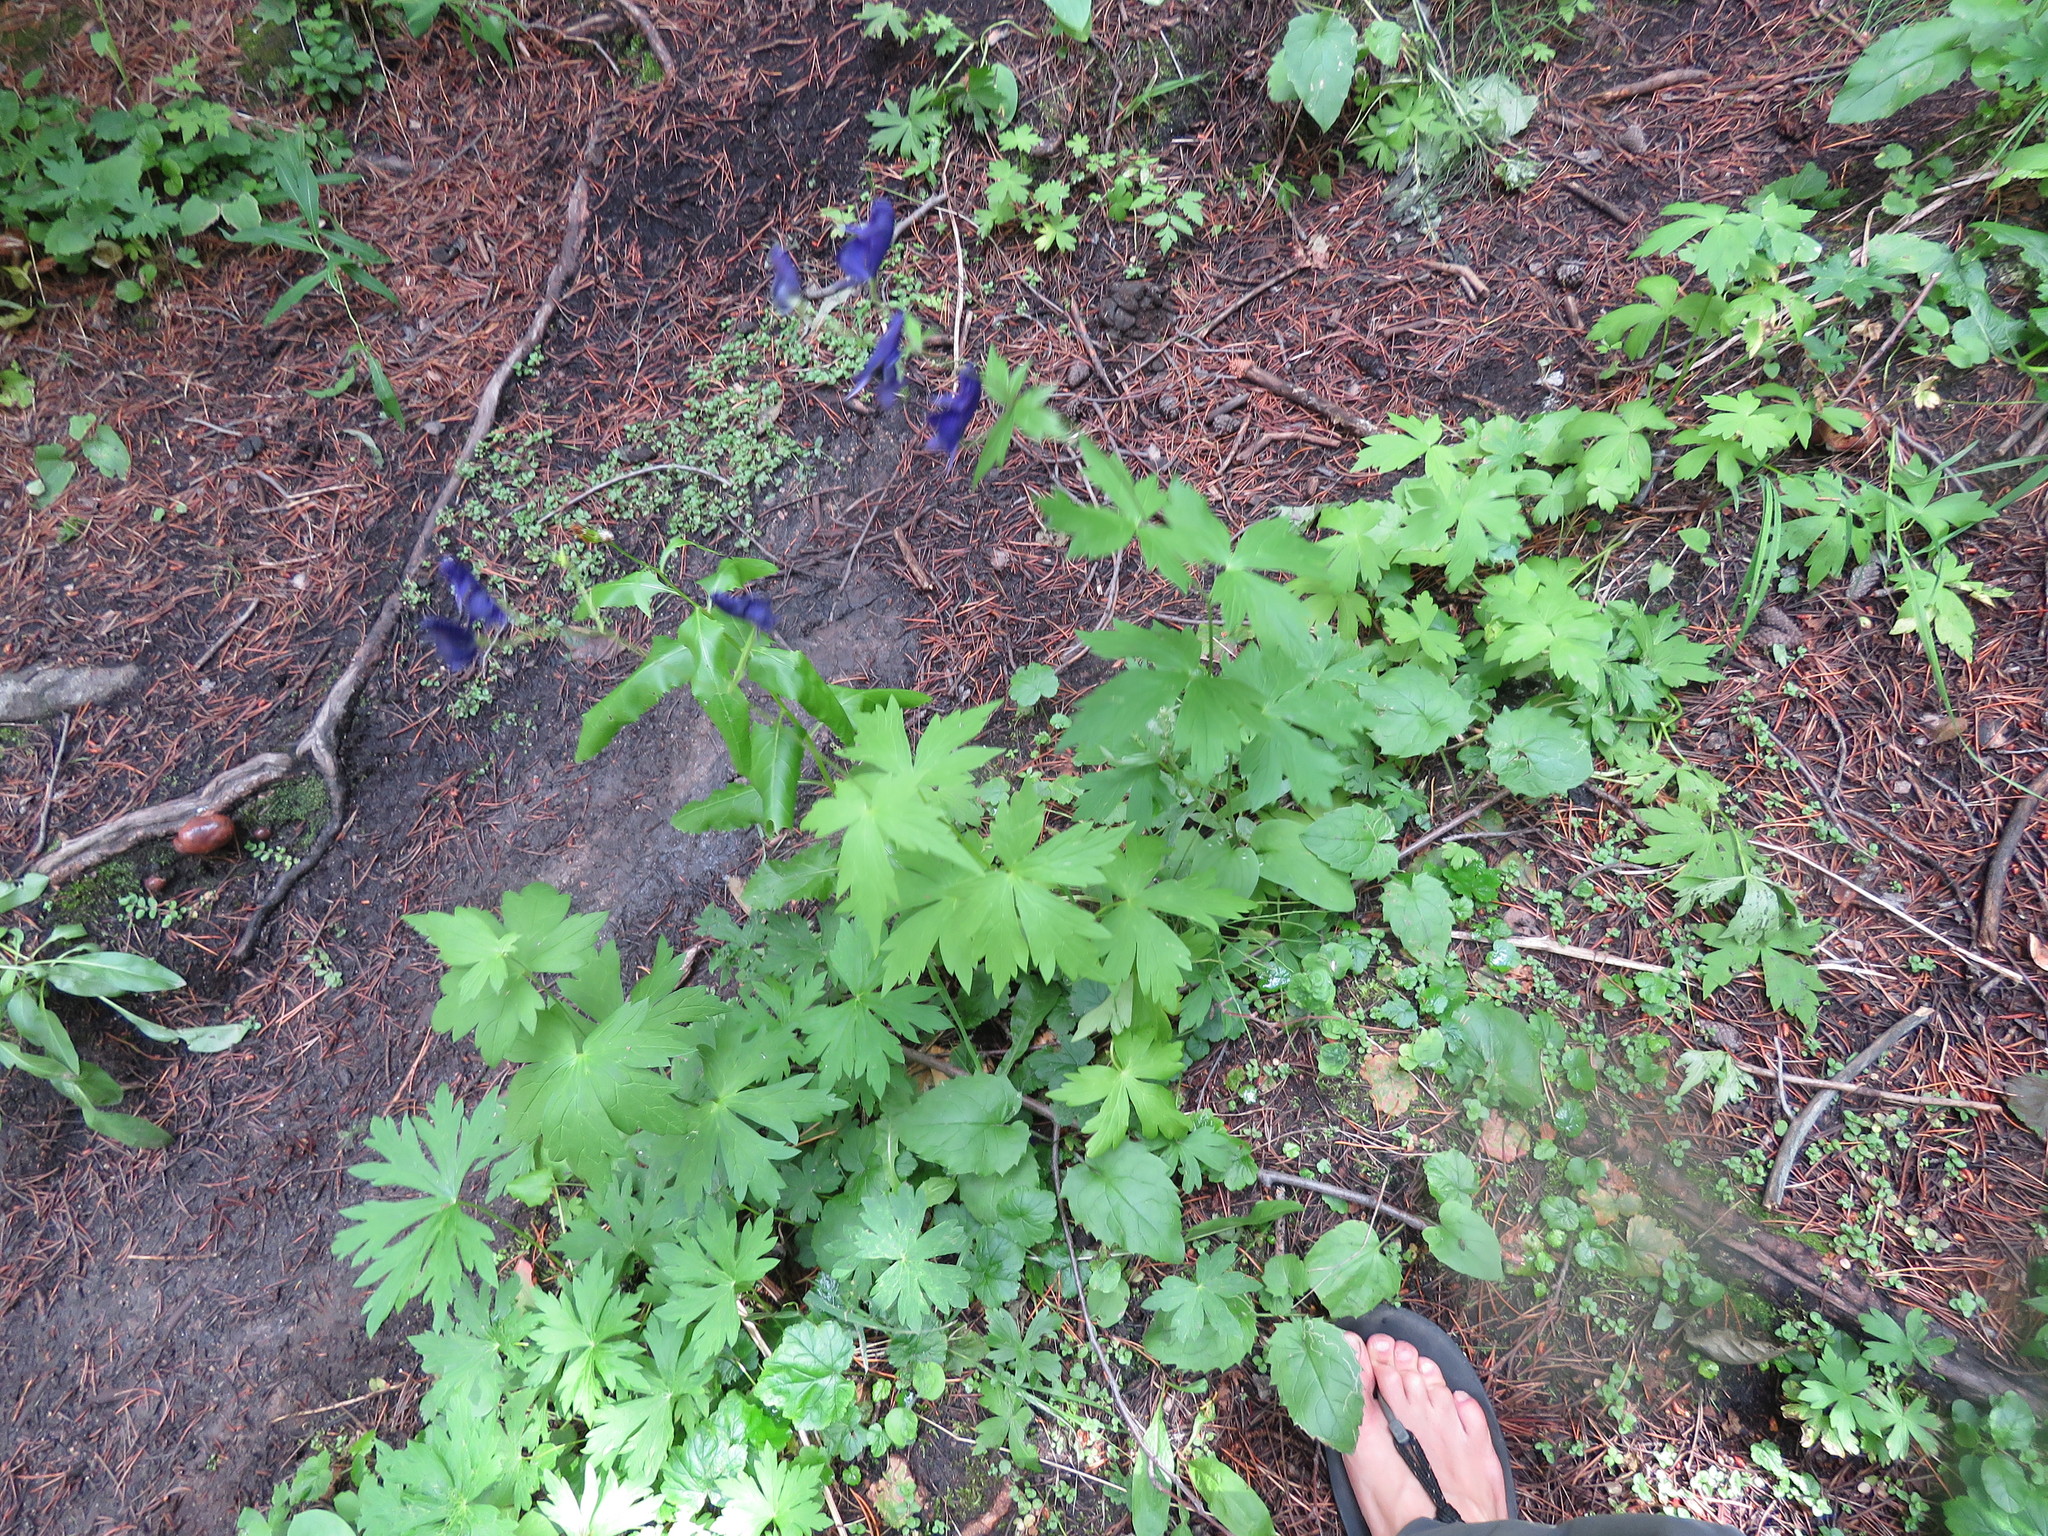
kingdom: Plantae
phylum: Tracheophyta
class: Magnoliopsida
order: Ranunculales
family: Ranunculaceae
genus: Aconitum
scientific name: Aconitum columbianum
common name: Columbia aconite
